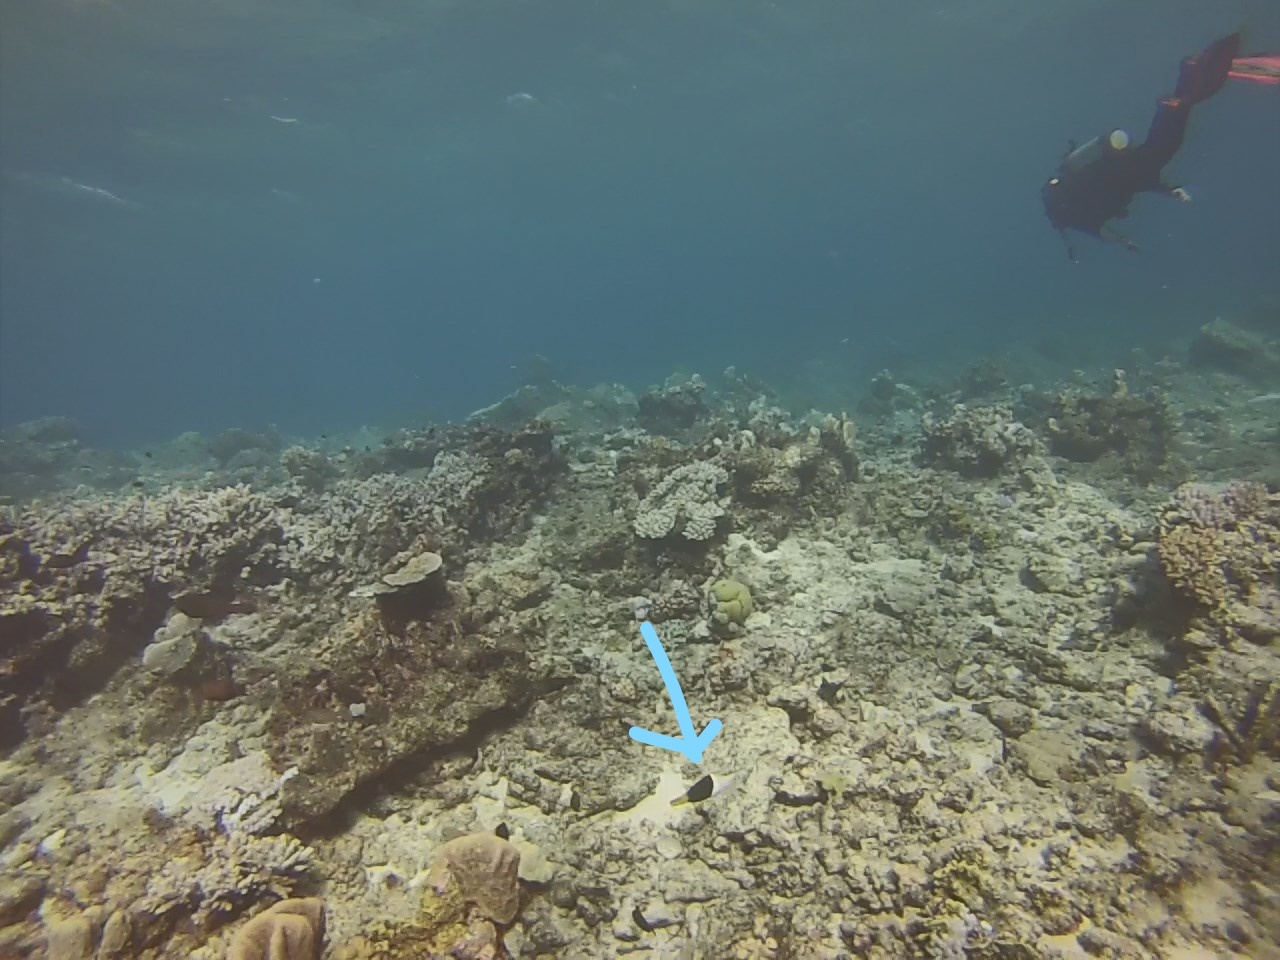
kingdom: Animalia
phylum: Chordata
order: Perciformes
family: Labridae
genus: Hemigymnus
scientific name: Hemigymnus melapterus
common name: Blackeye thicklip
